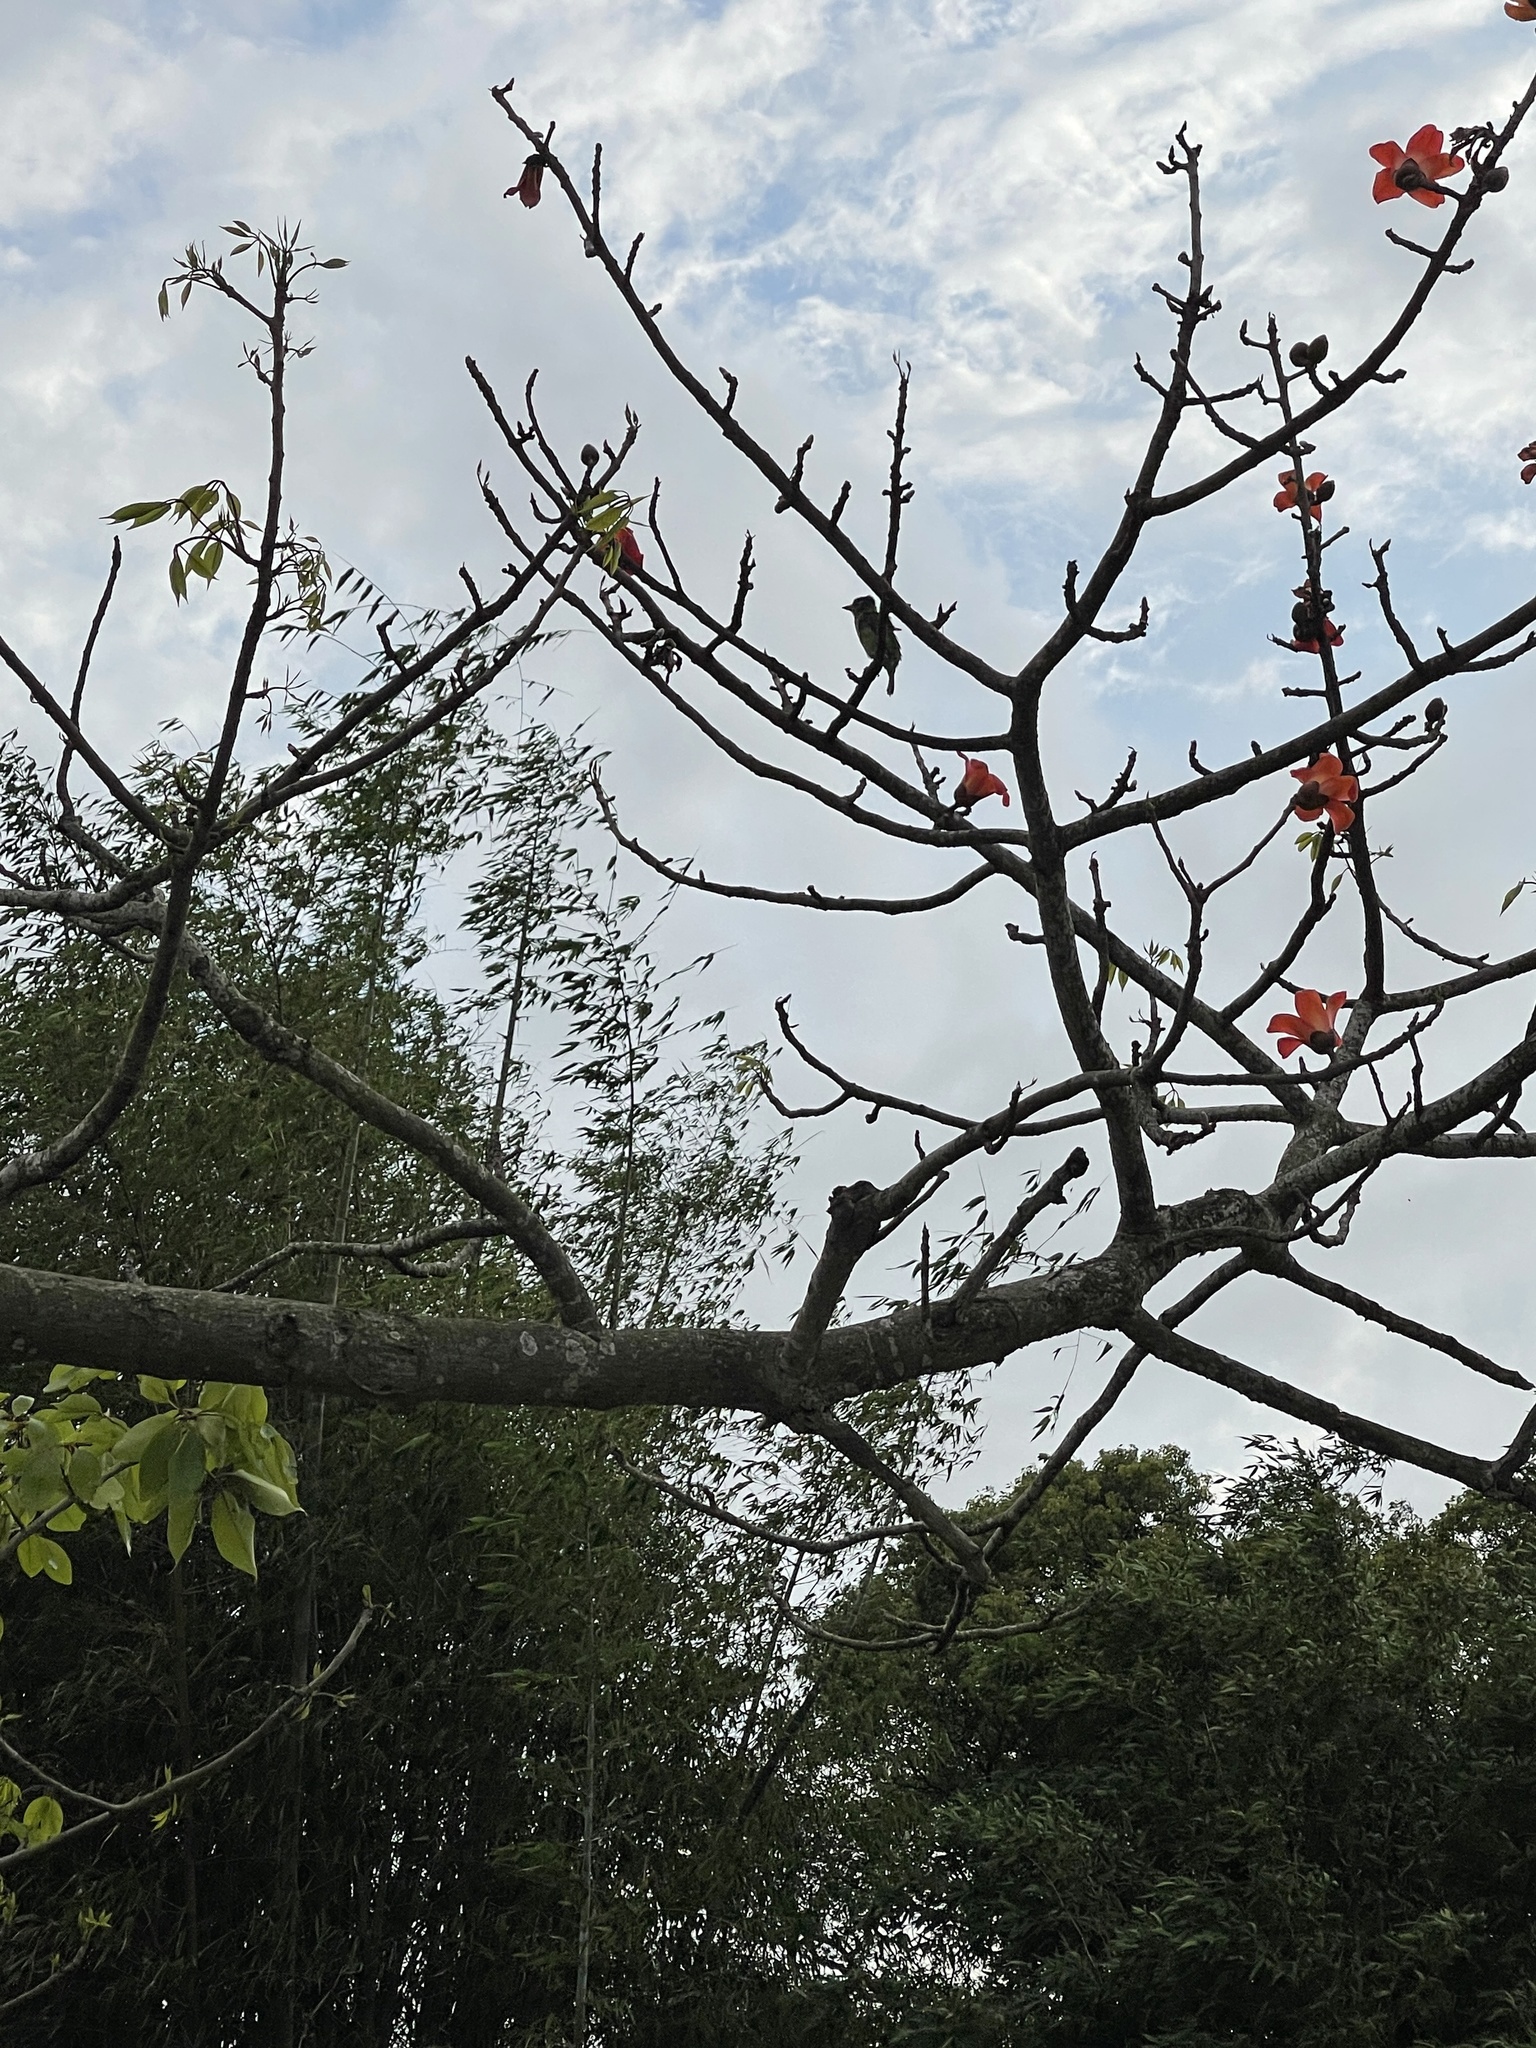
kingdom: Animalia
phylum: Chordata
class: Aves
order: Piciformes
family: Megalaimidae
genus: Psilopogon
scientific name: Psilopogon nuchalis
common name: Taiwan barbet
